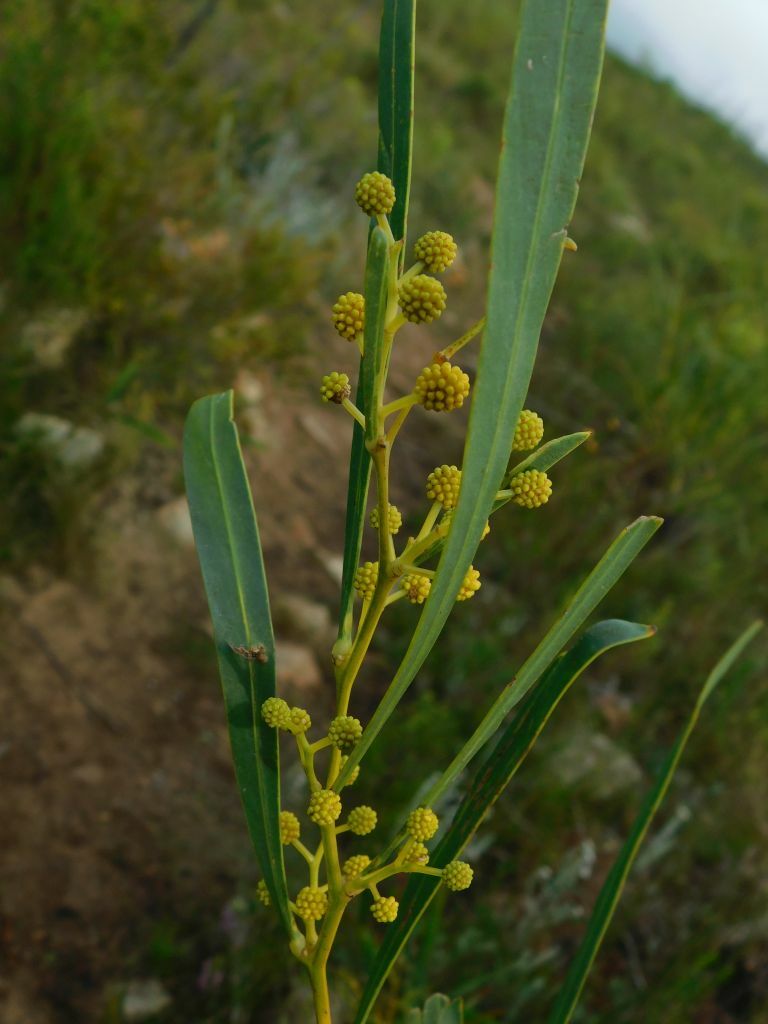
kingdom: Plantae
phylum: Tracheophyta
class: Magnoliopsida
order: Fabales
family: Fabaceae
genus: Acacia
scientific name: Acacia saligna
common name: Orange wattle
